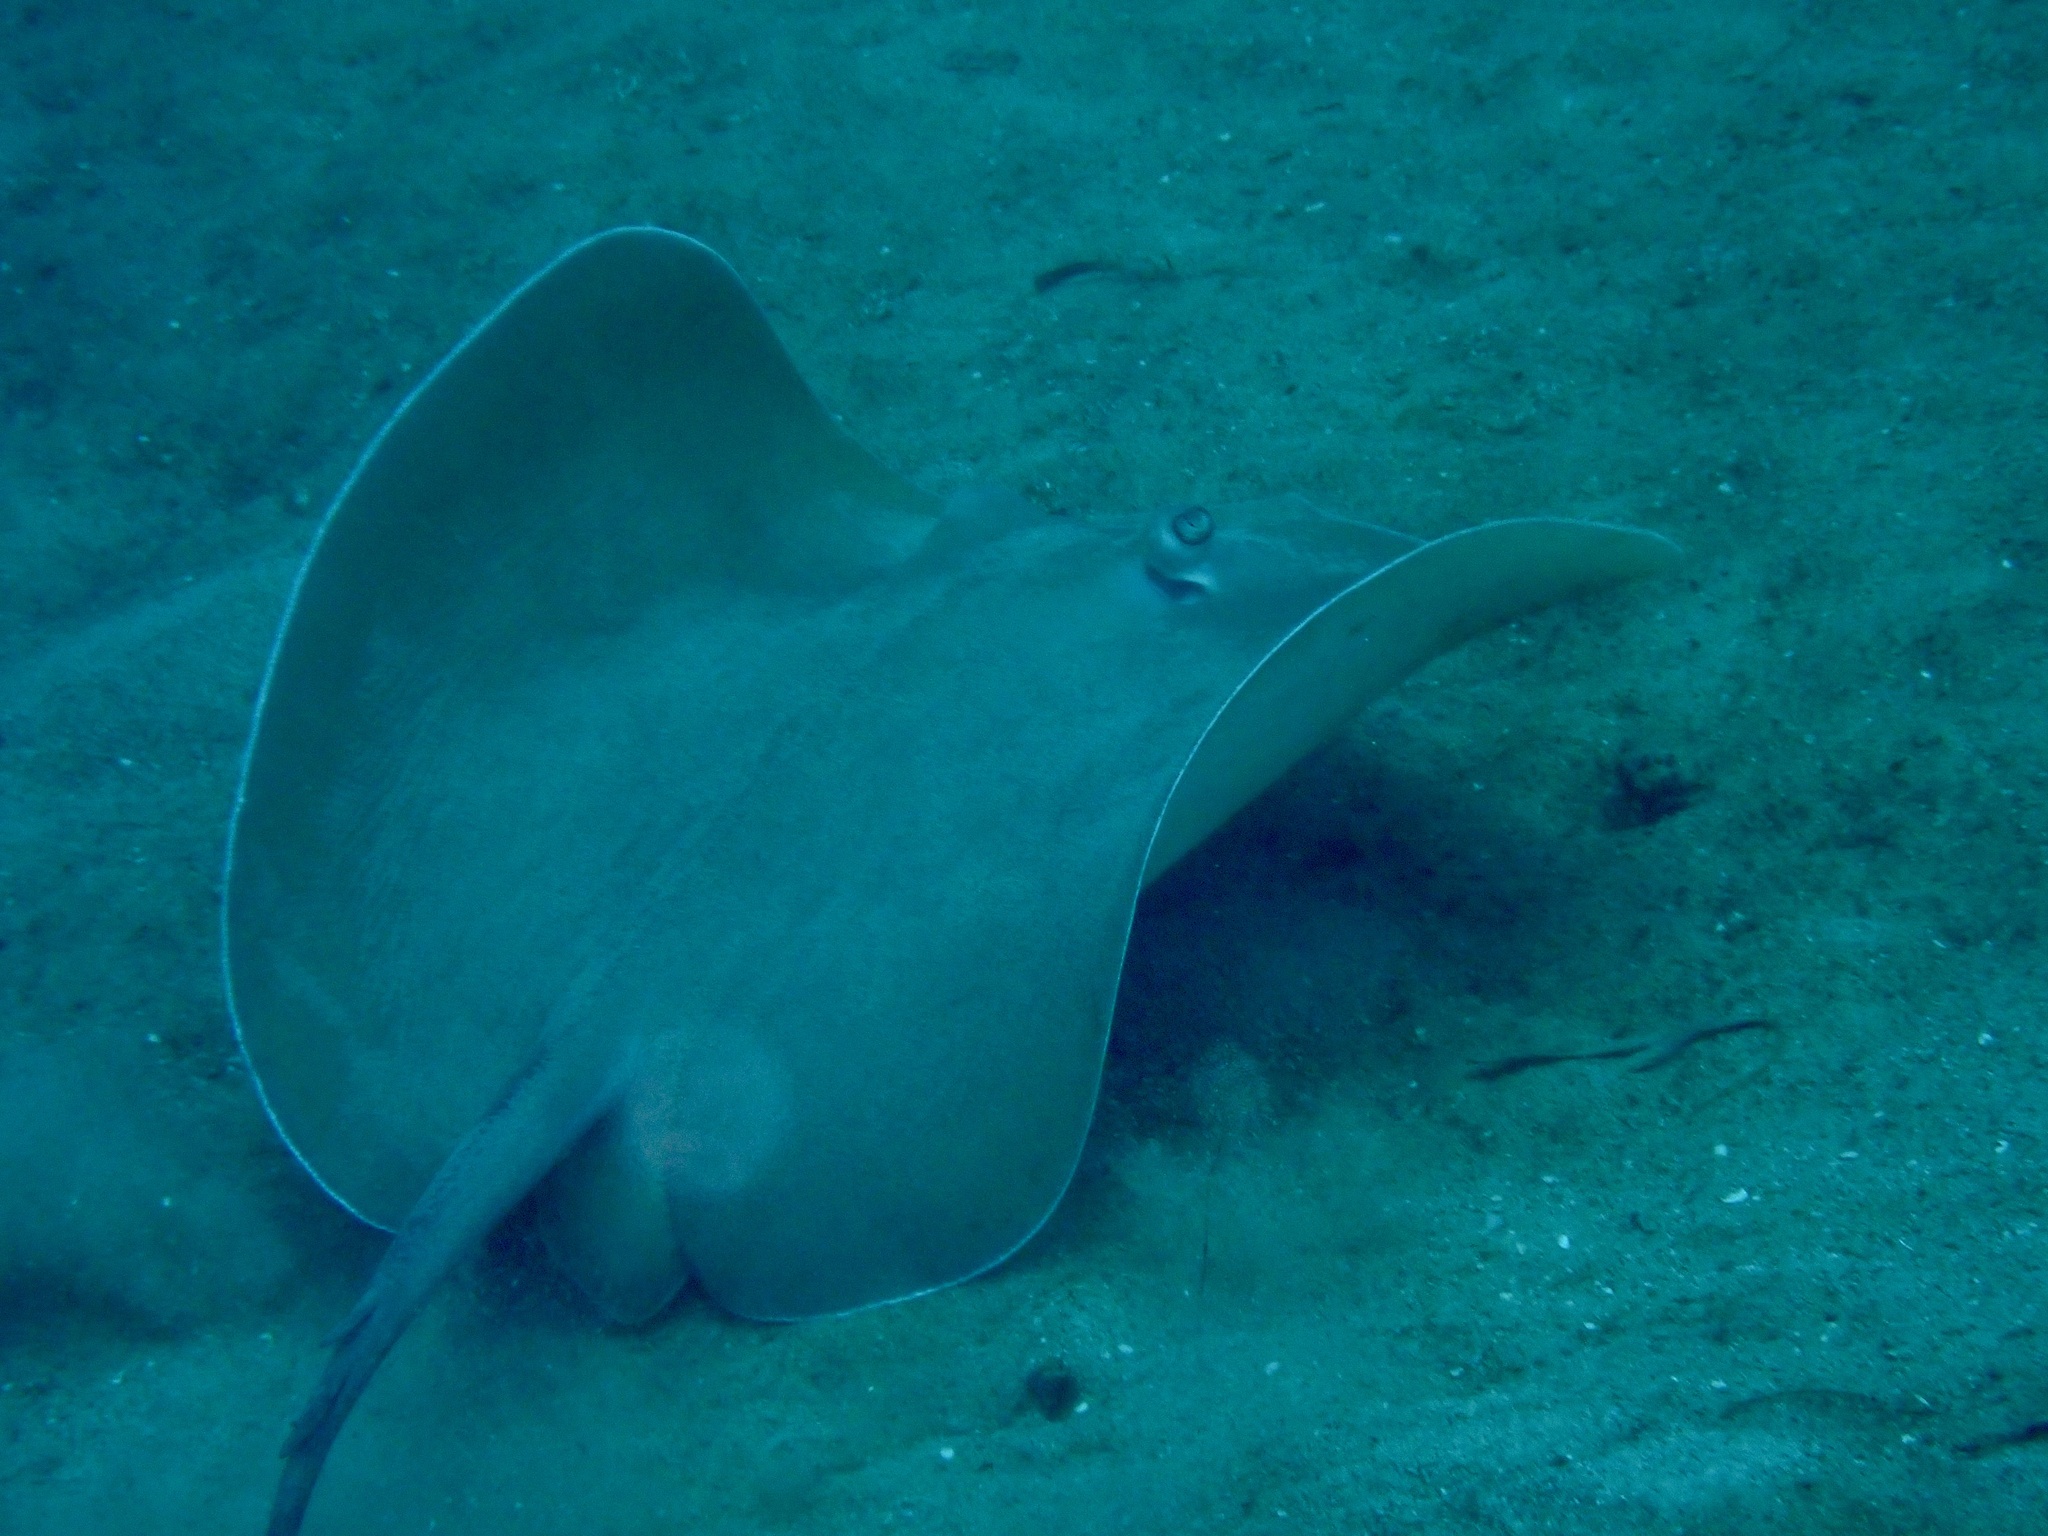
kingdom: Animalia
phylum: Chordata
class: Elasmobranchii
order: Myliobatiformes
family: Dasyatidae
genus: Pateobatis
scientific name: Pateobatis fai
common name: Pink whipray
